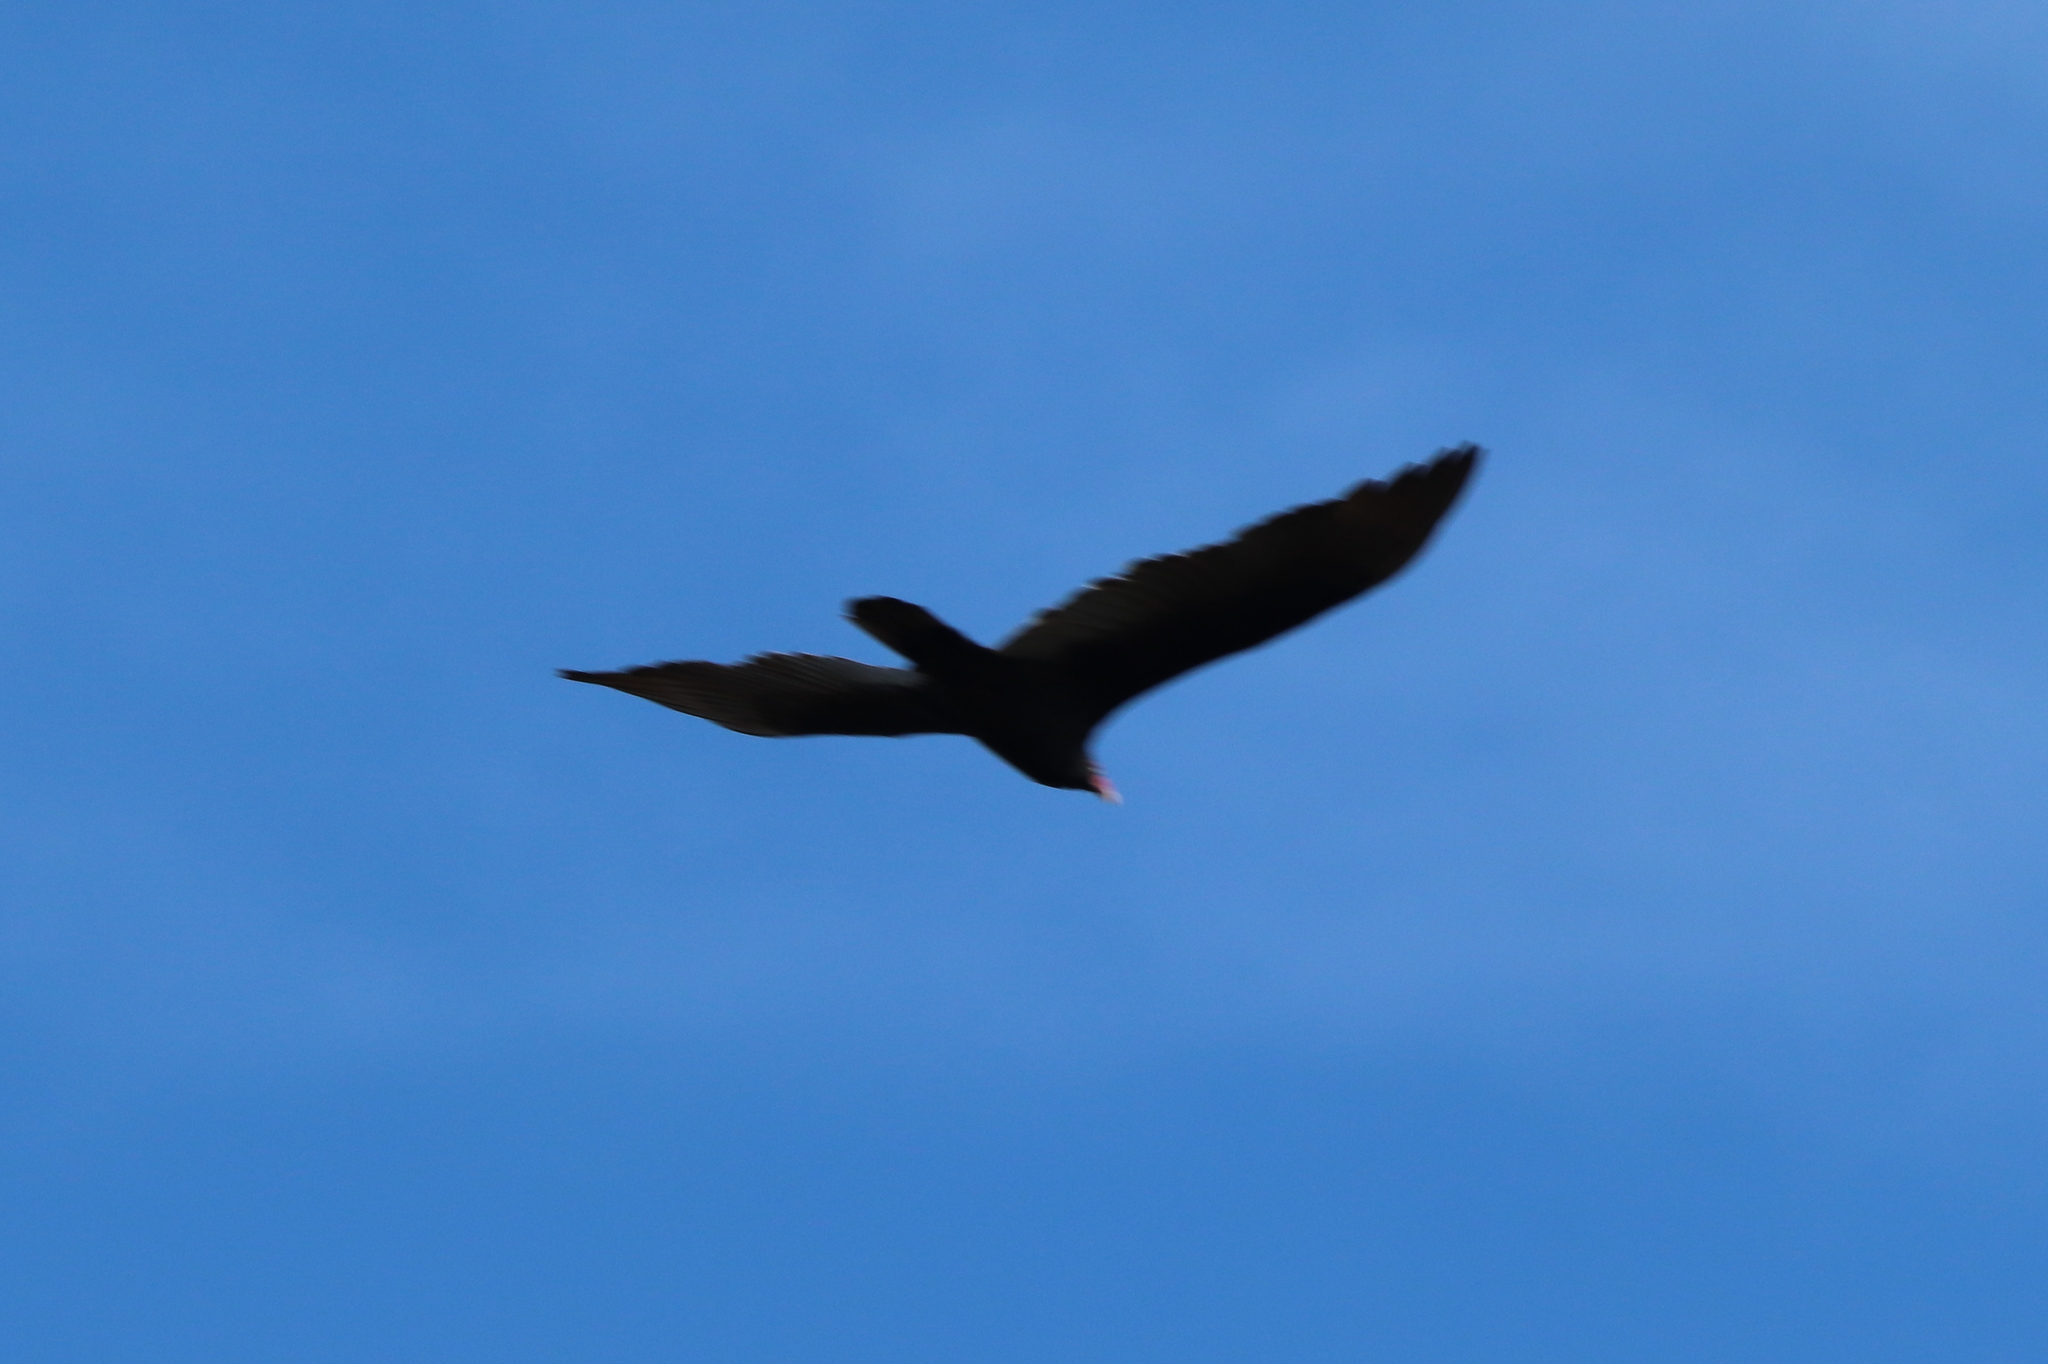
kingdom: Animalia
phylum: Chordata
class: Aves
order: Accipitriformes
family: Cathartidae
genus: Cathartes
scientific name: Cathartes aura
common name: Turkey vulture
